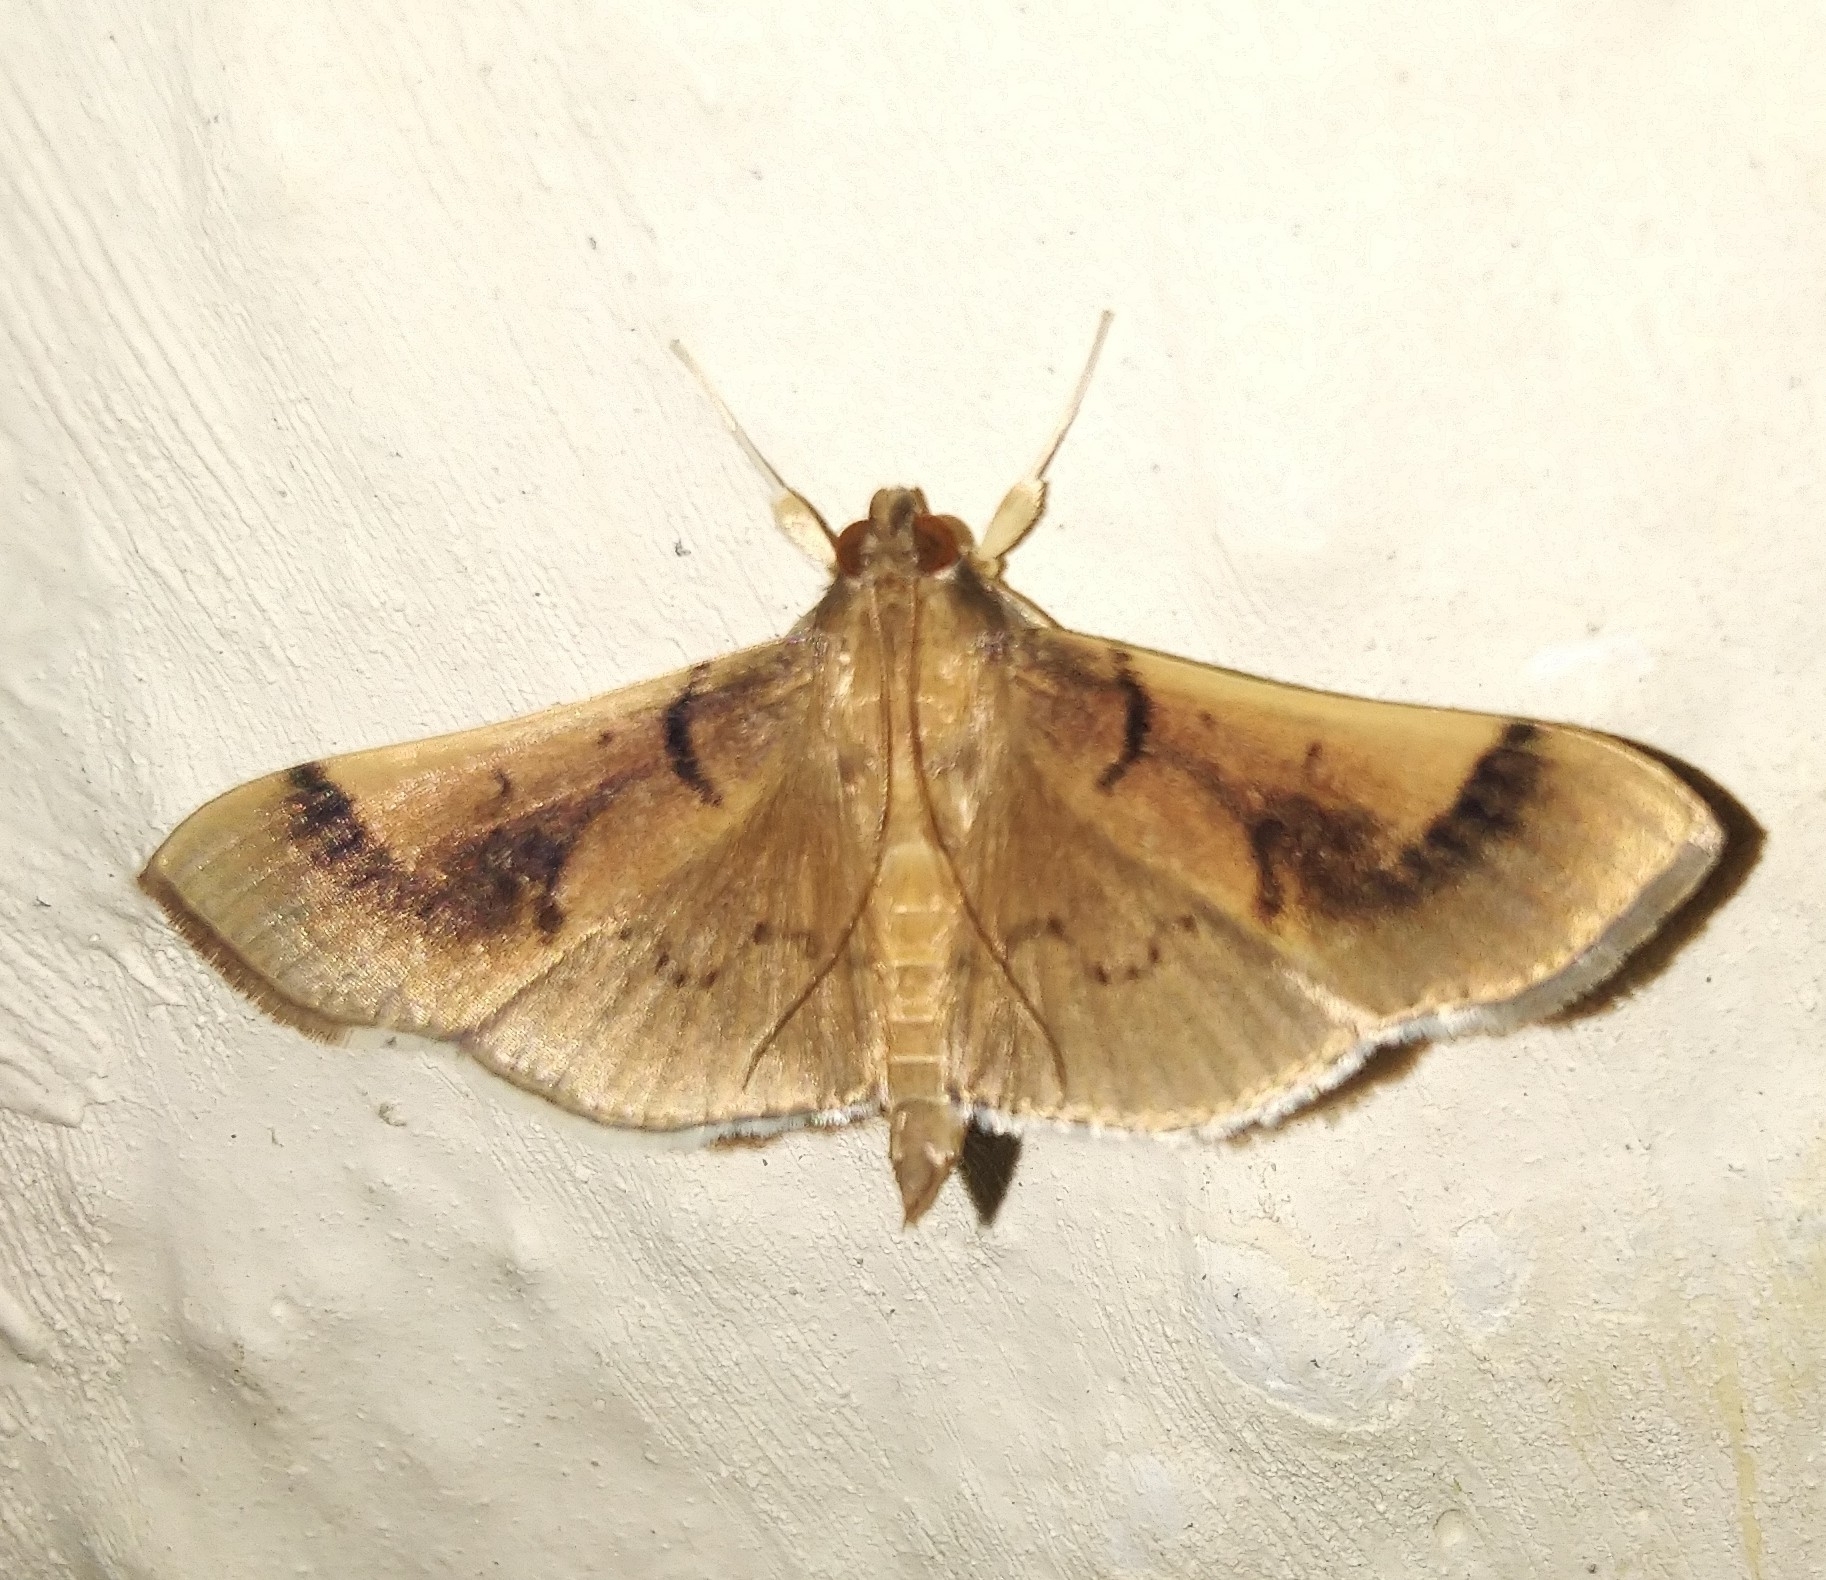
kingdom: Animalia
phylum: Arthropoda
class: Insecta
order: Lepidoptera
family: Crambidae
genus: Omiodes
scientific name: Omiodes
